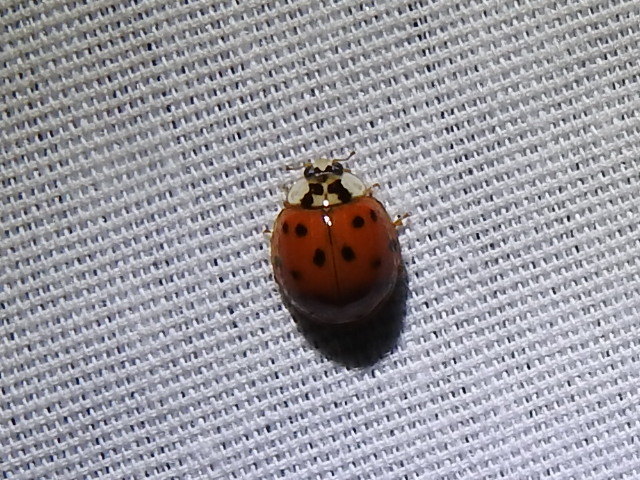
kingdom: Animalia
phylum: Arthropoda
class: Insecta
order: Coleoptera
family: Coccinellidae
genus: Harmonia
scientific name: Harmonia axyridis
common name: Harlequin ladybird
